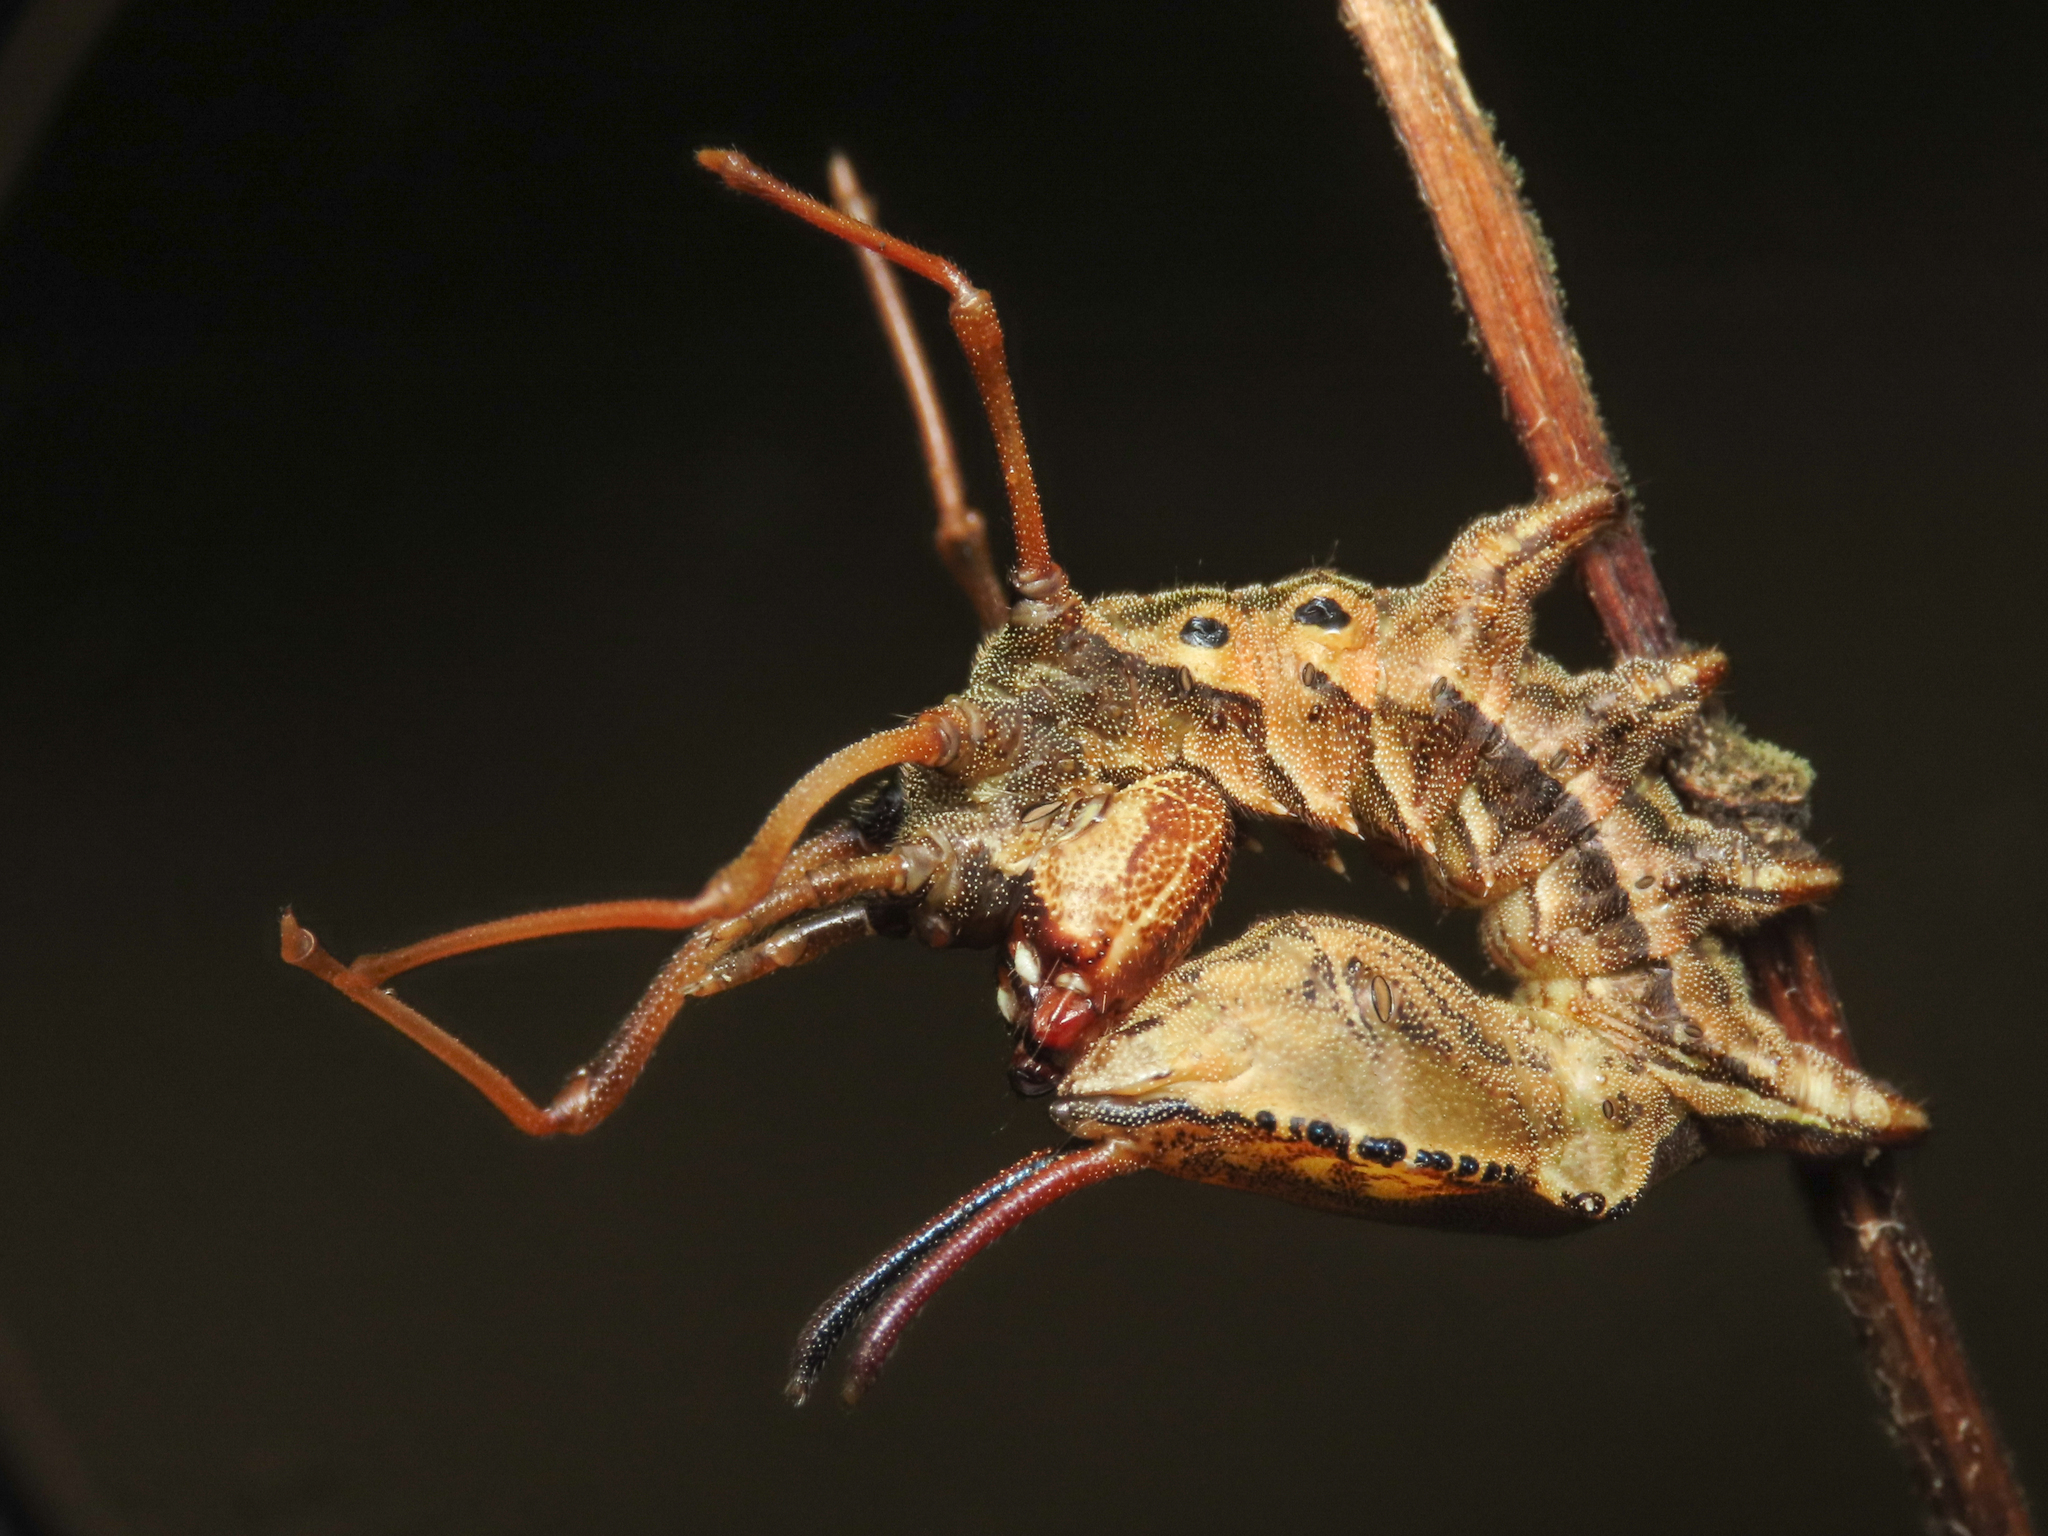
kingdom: Animalia
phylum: Arthropoda
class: Insecta
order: Lepidoptera
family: Notodontidae
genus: Stauropus
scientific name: Stauropus fagi
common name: Lobster moth
